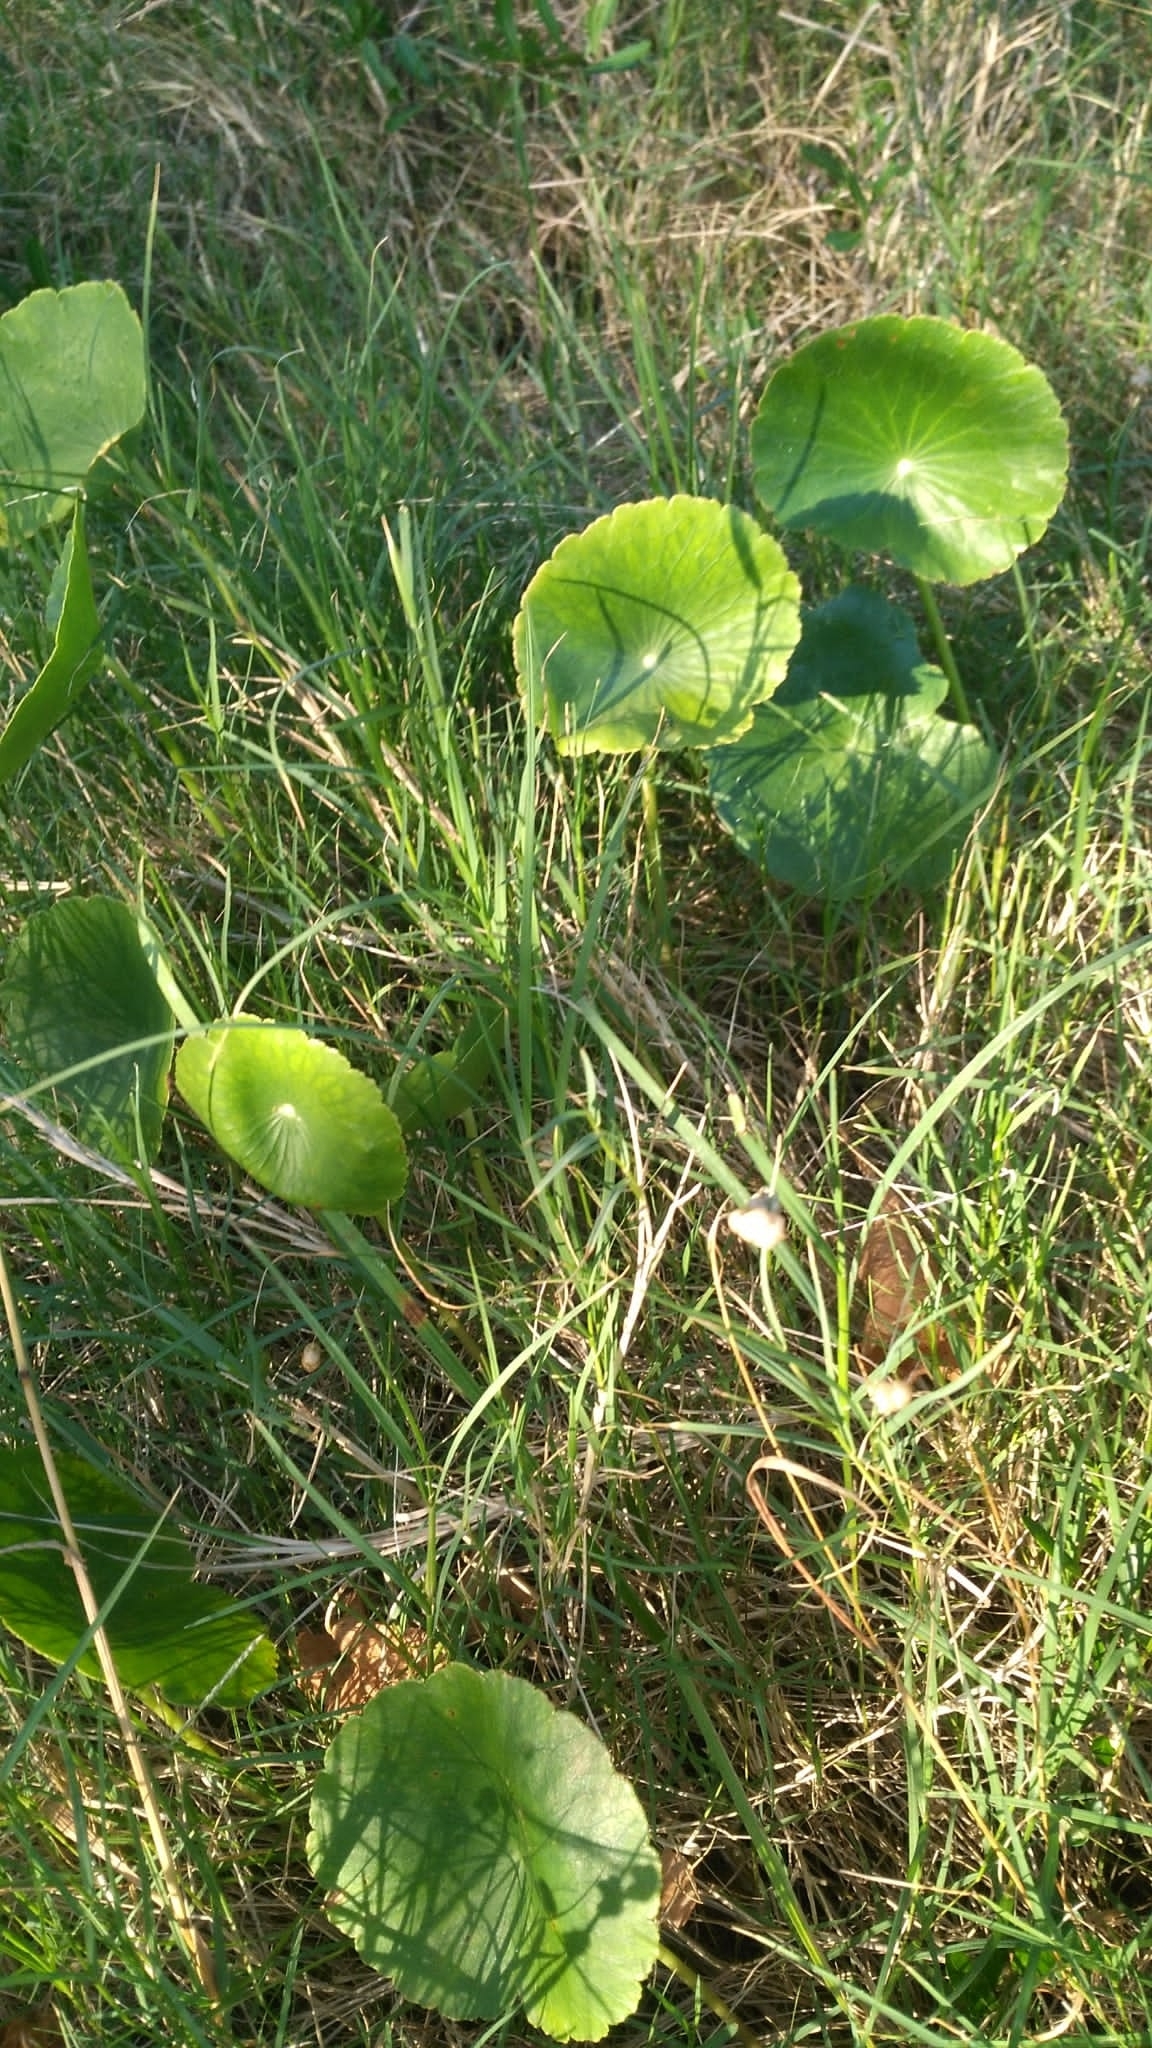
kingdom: Plantae
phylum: Tracheophyta
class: Magnoliopsida
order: Apiales
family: Araliaceae
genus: Hydrocotyle
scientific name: Hydrocotyle bonariensis
